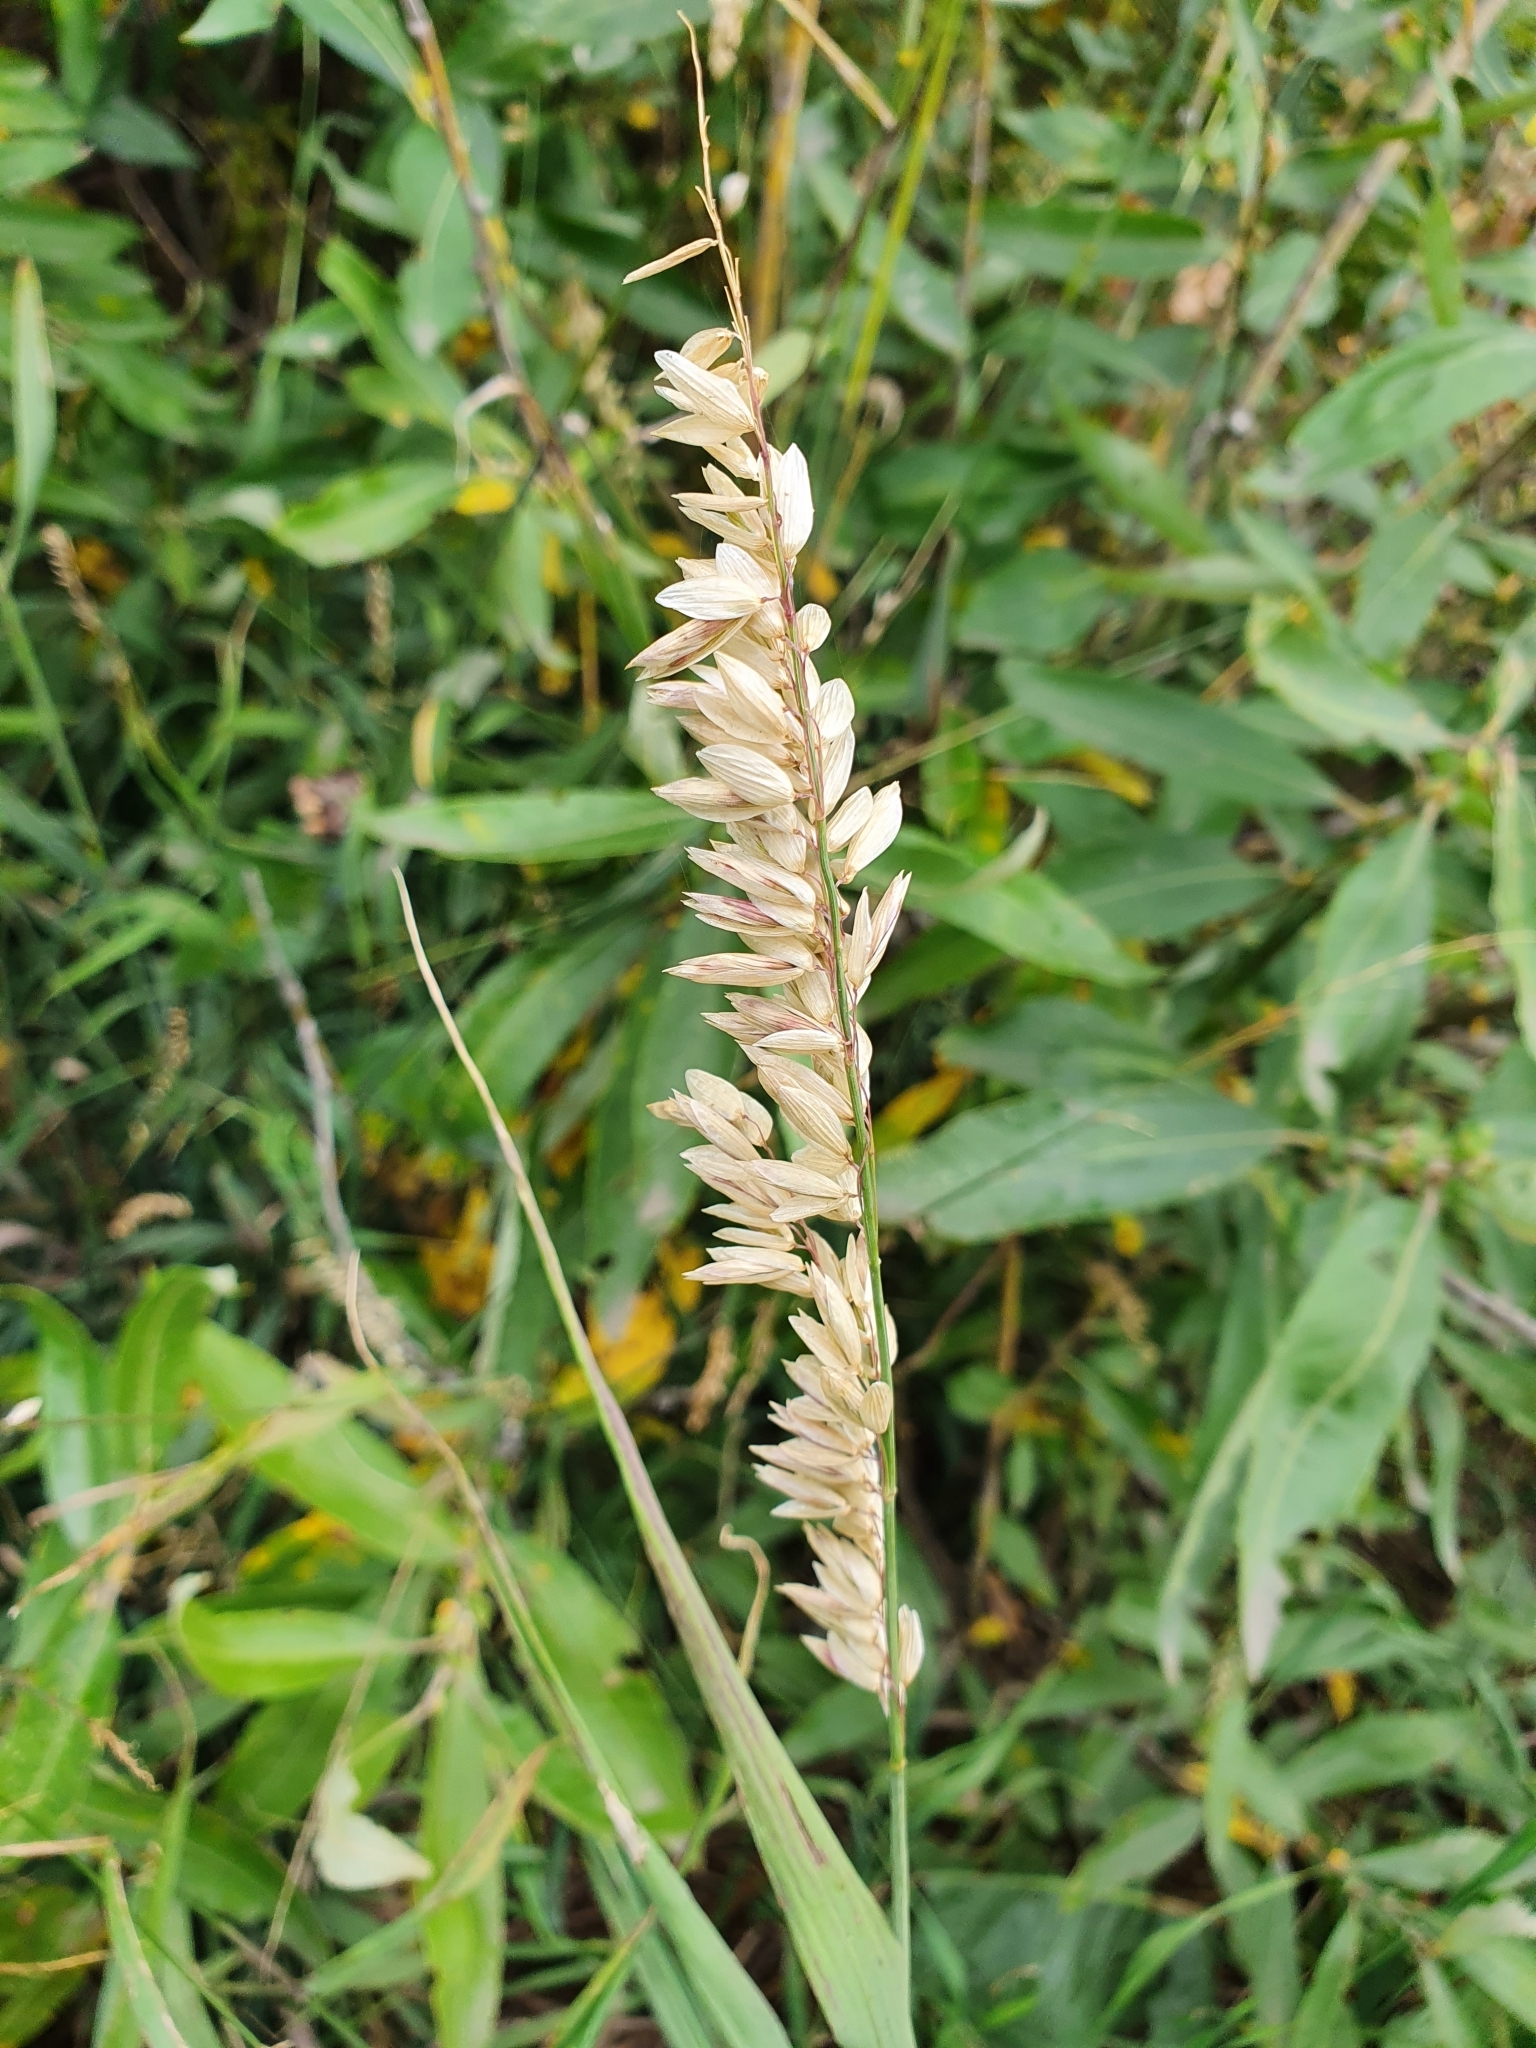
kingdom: Plantae
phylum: Tracheophyta
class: Liliopsida
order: Poales
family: Poaceae
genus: Melica
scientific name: Melica altissima
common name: Siberian melicgrass
